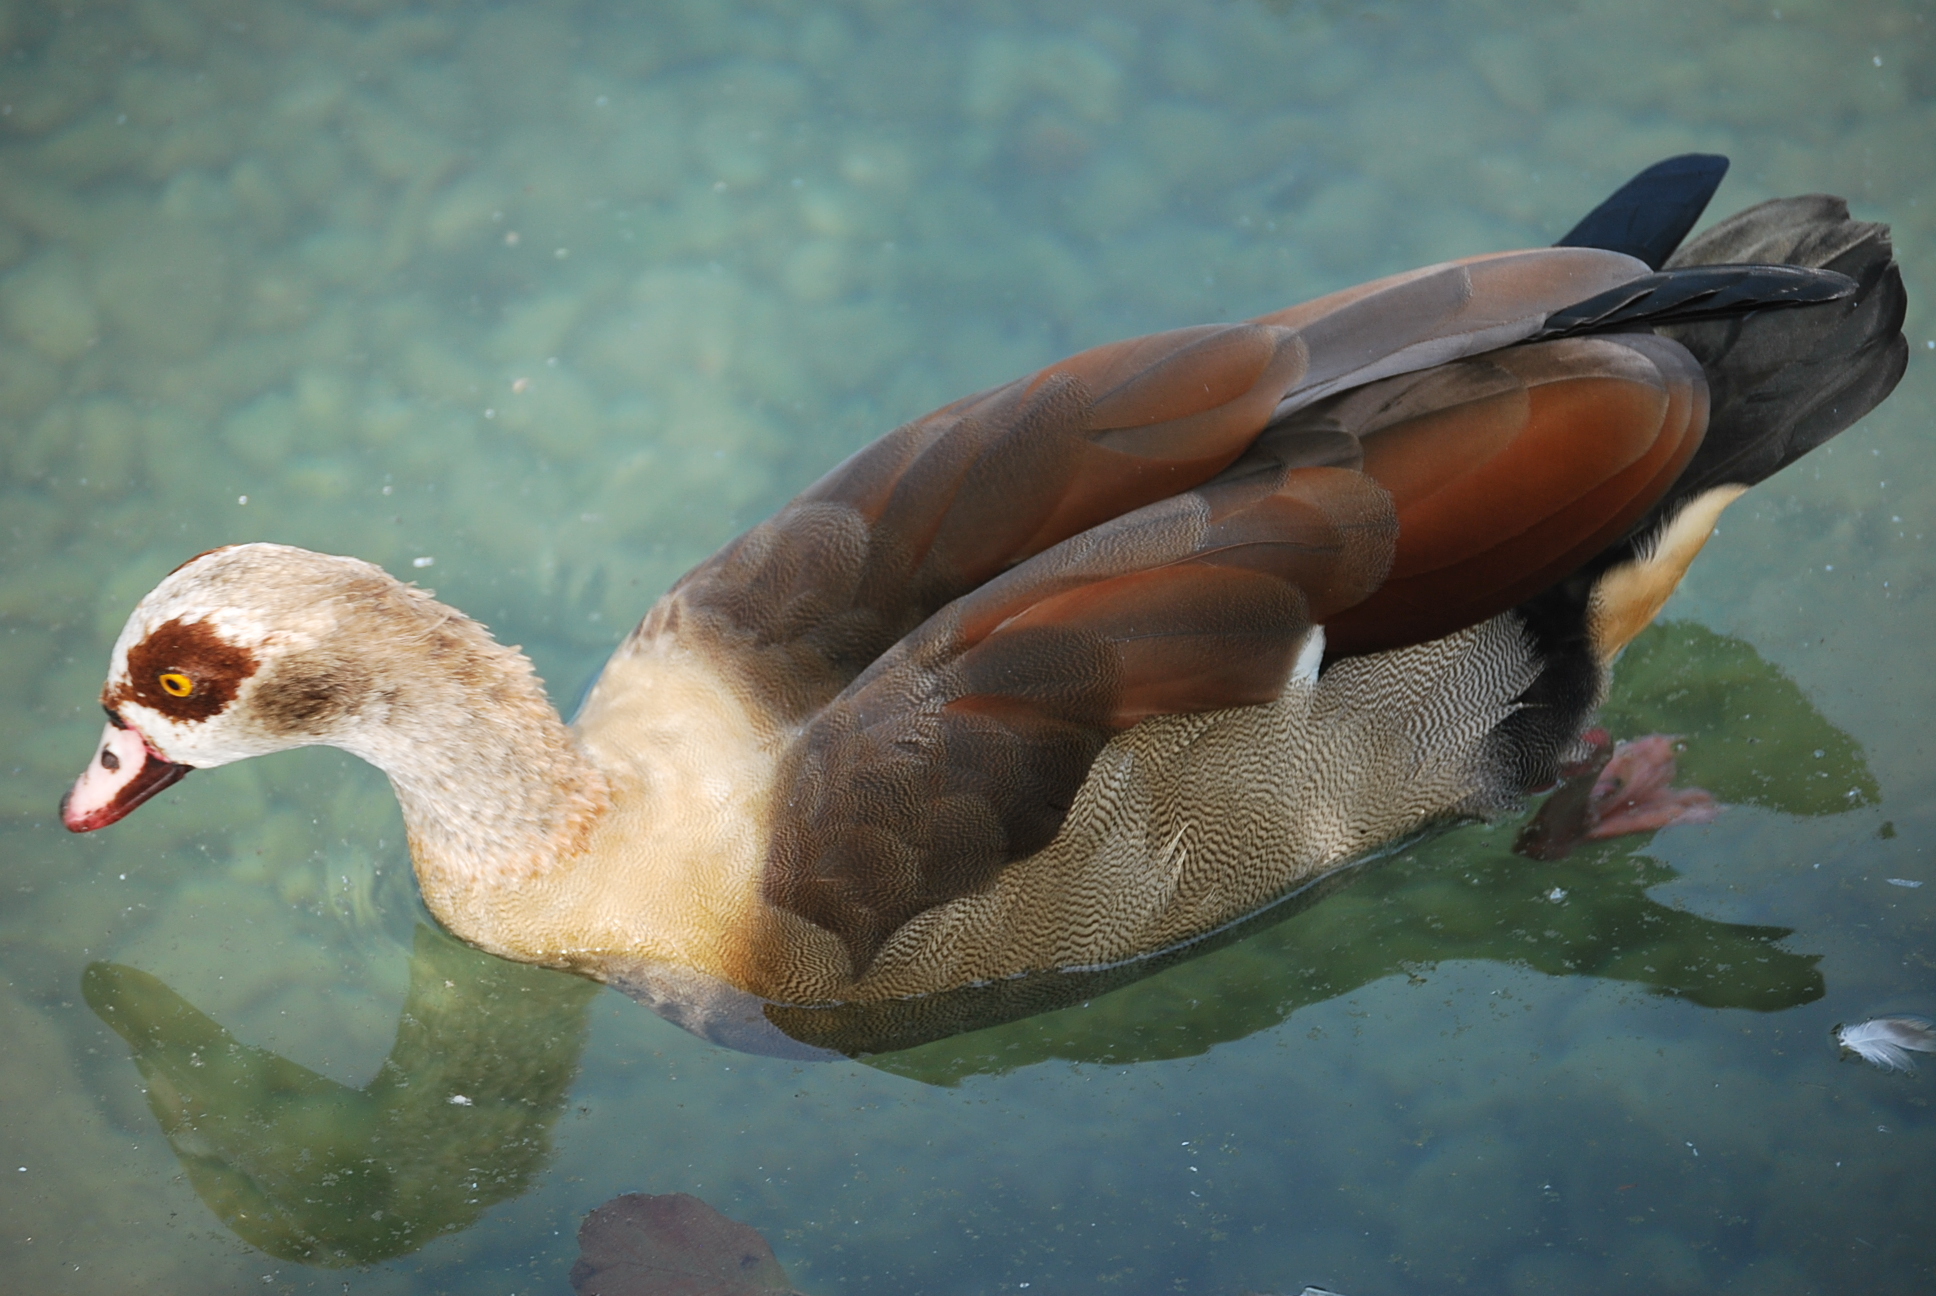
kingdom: Animalia
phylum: Chordata
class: Aves
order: Anseriformes
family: Anatidae
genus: Alopochen
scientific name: Alopochen aegyptiaca
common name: Egyptian goose
